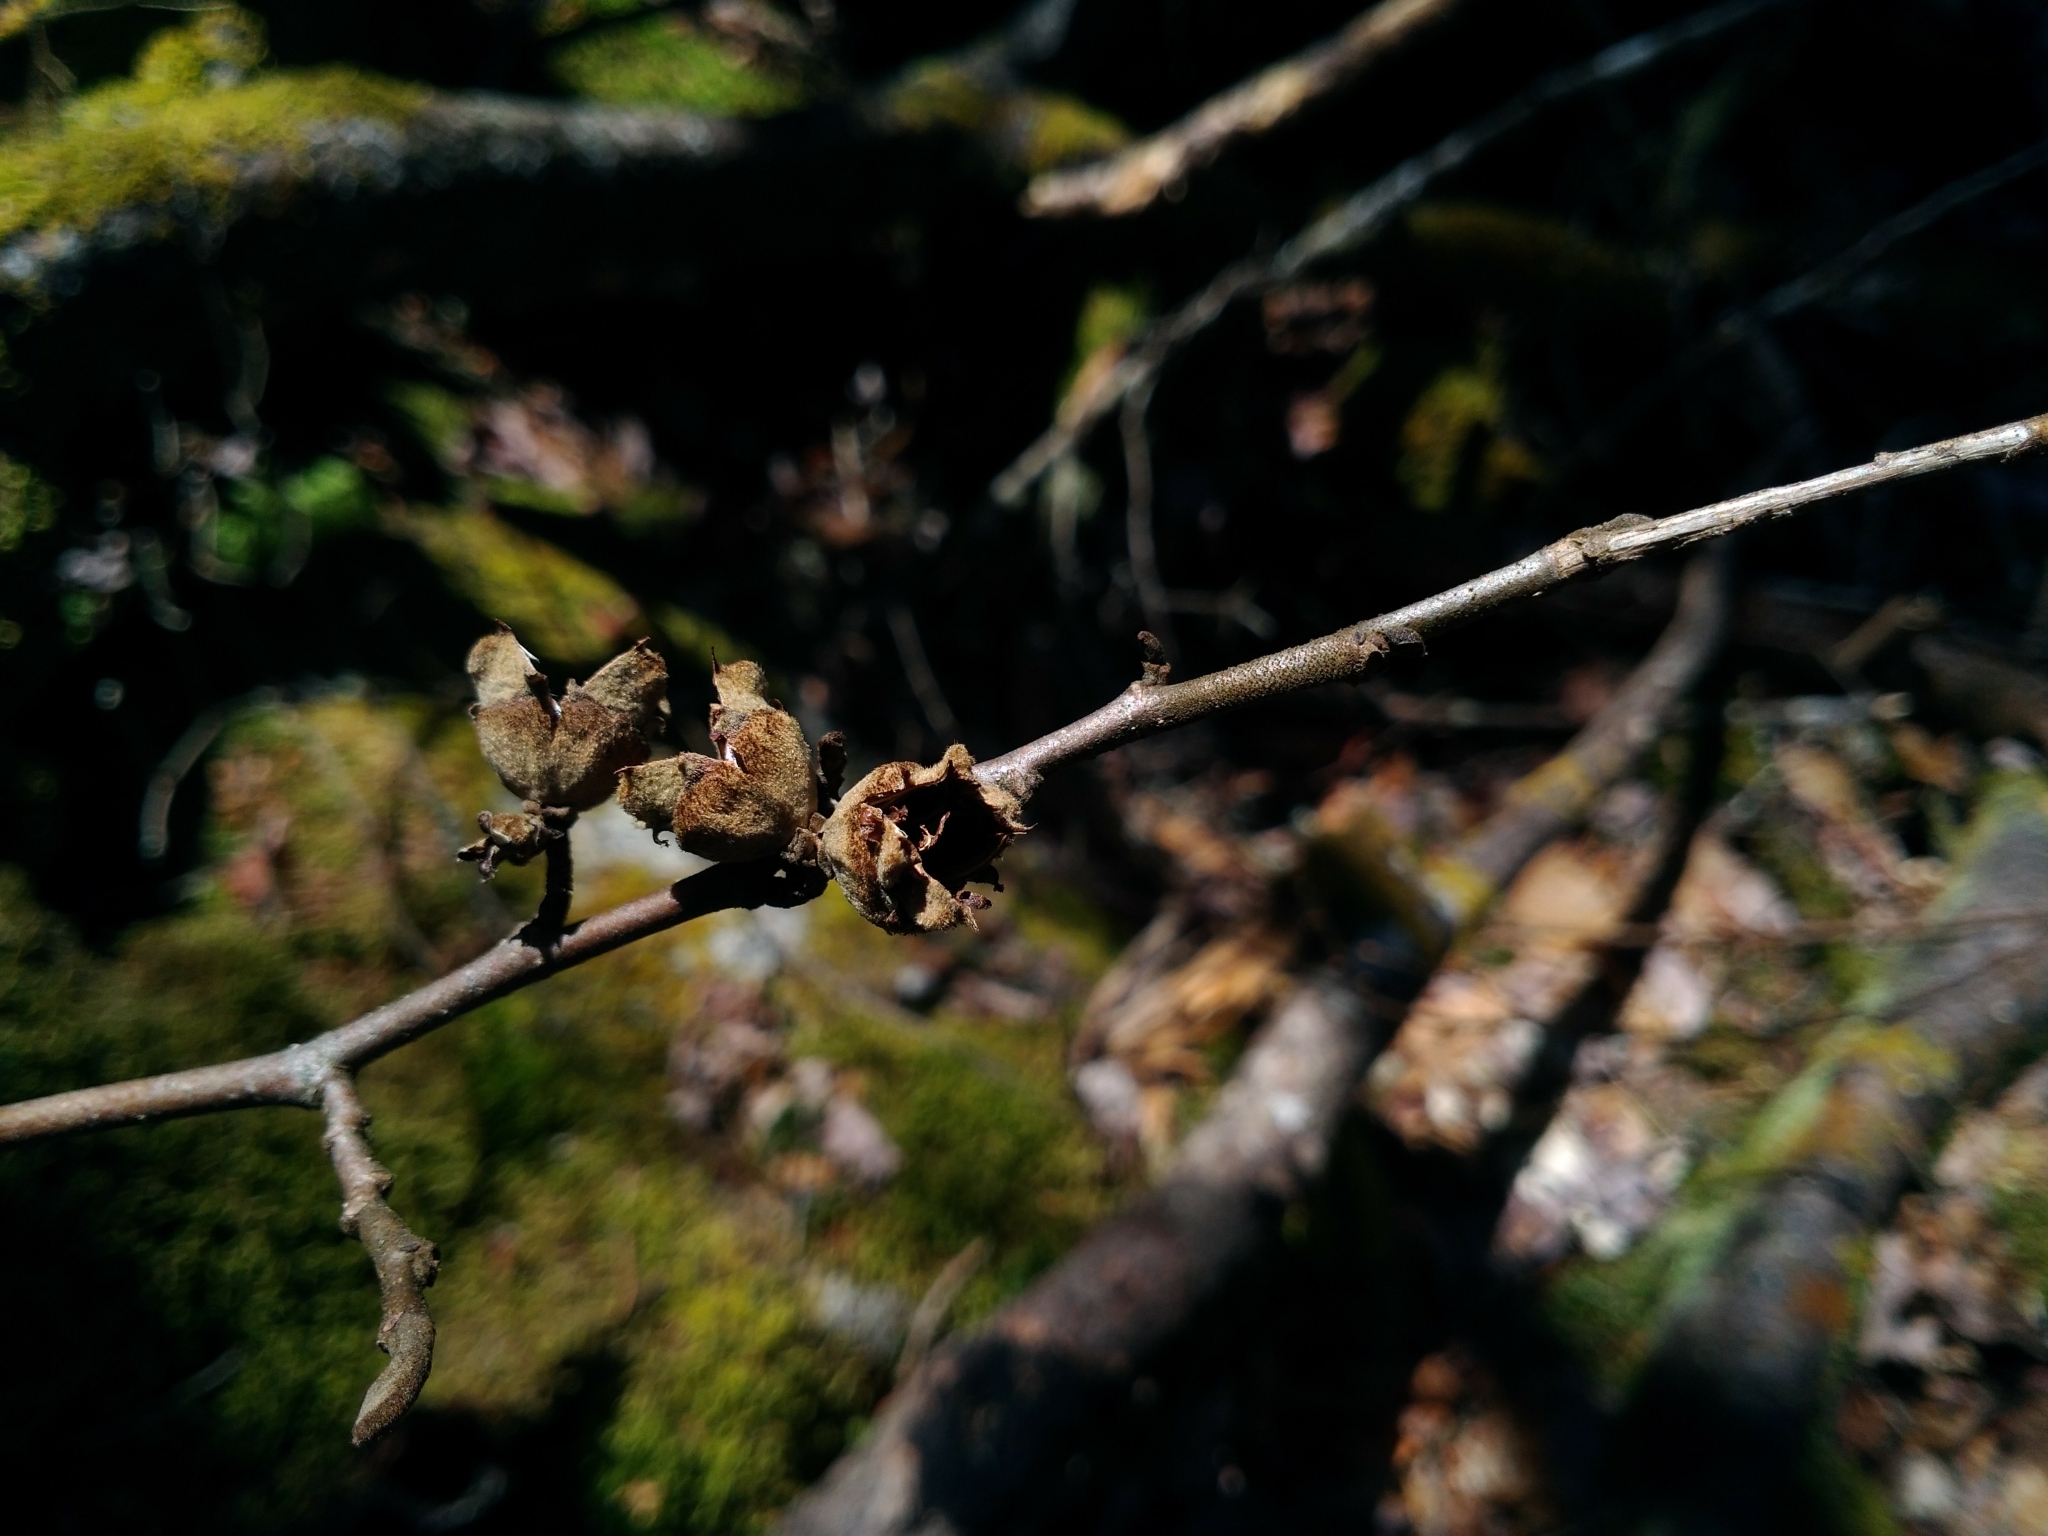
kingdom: Plantae
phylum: Tracheophyta
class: Magnoliopsida
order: Saxifragales
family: Hamamelidaceae
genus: Hamamelis
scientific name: Hamamelis virginiana
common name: Witch-hazel
